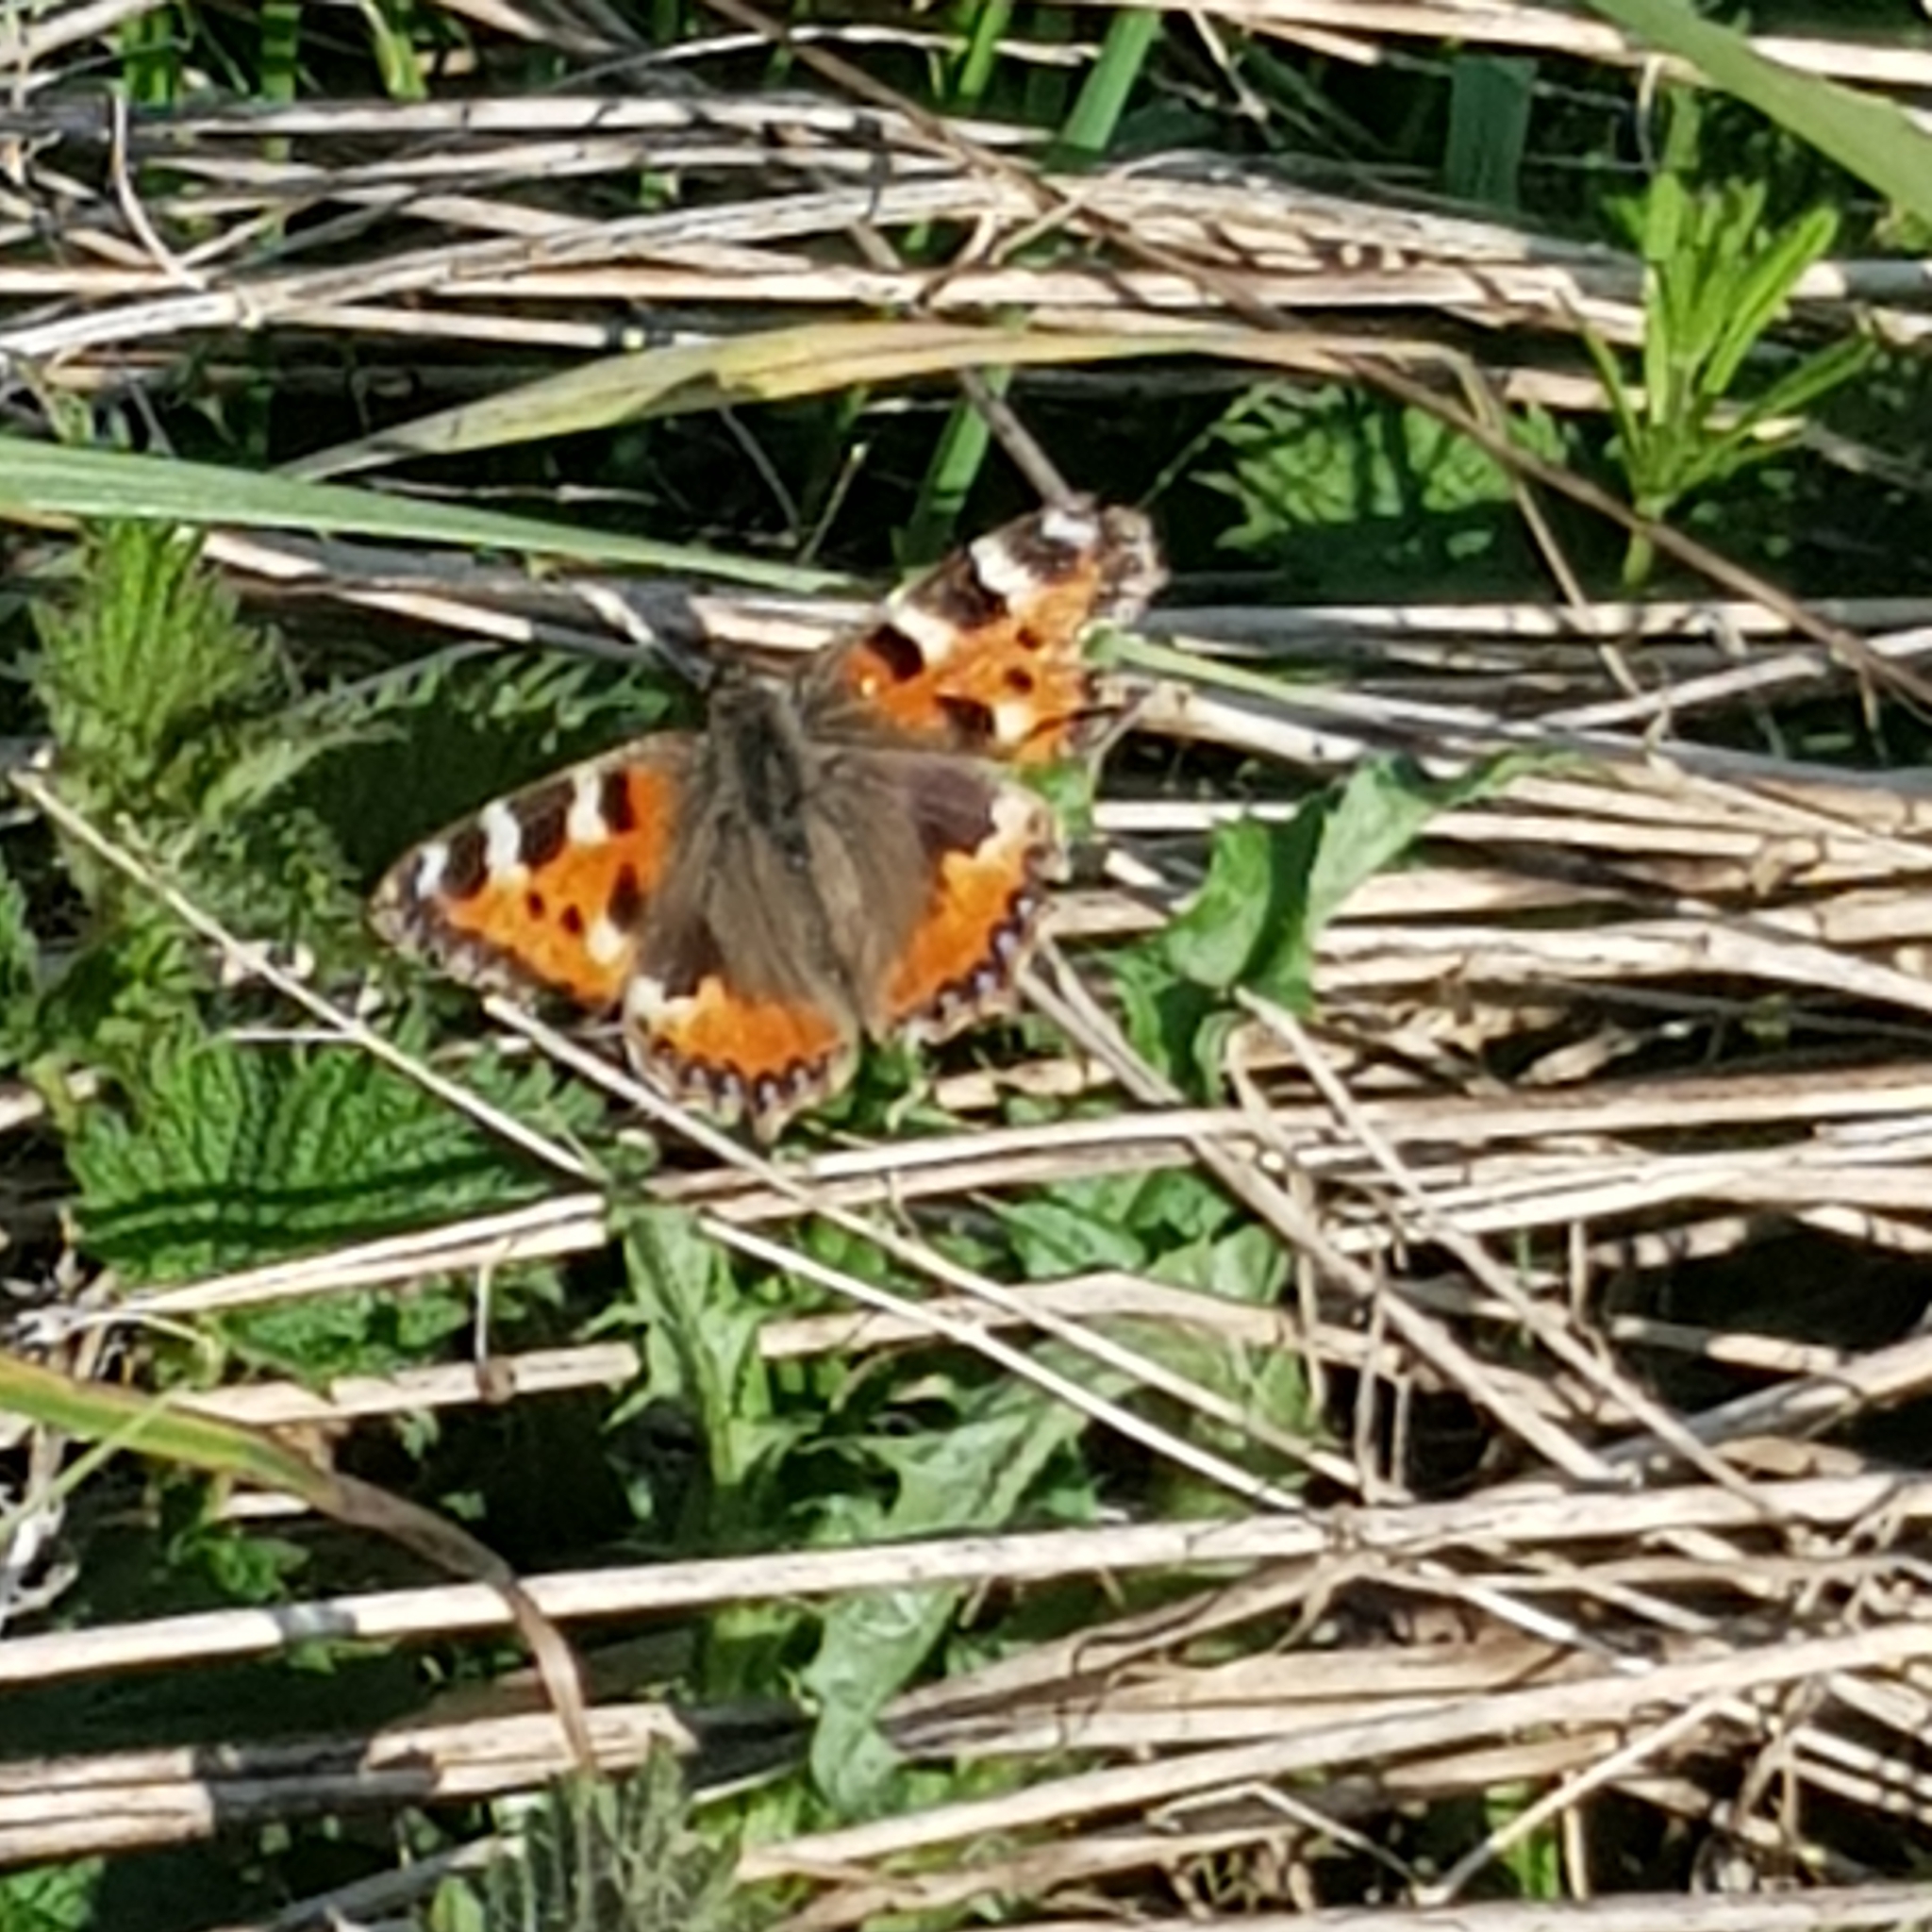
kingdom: Animalia
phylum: Arthropoda
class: Insecta
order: Lepidoptera
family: Nymphalidae
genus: Aglais
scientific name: Aglais urticae
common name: Small tortoiseshell
